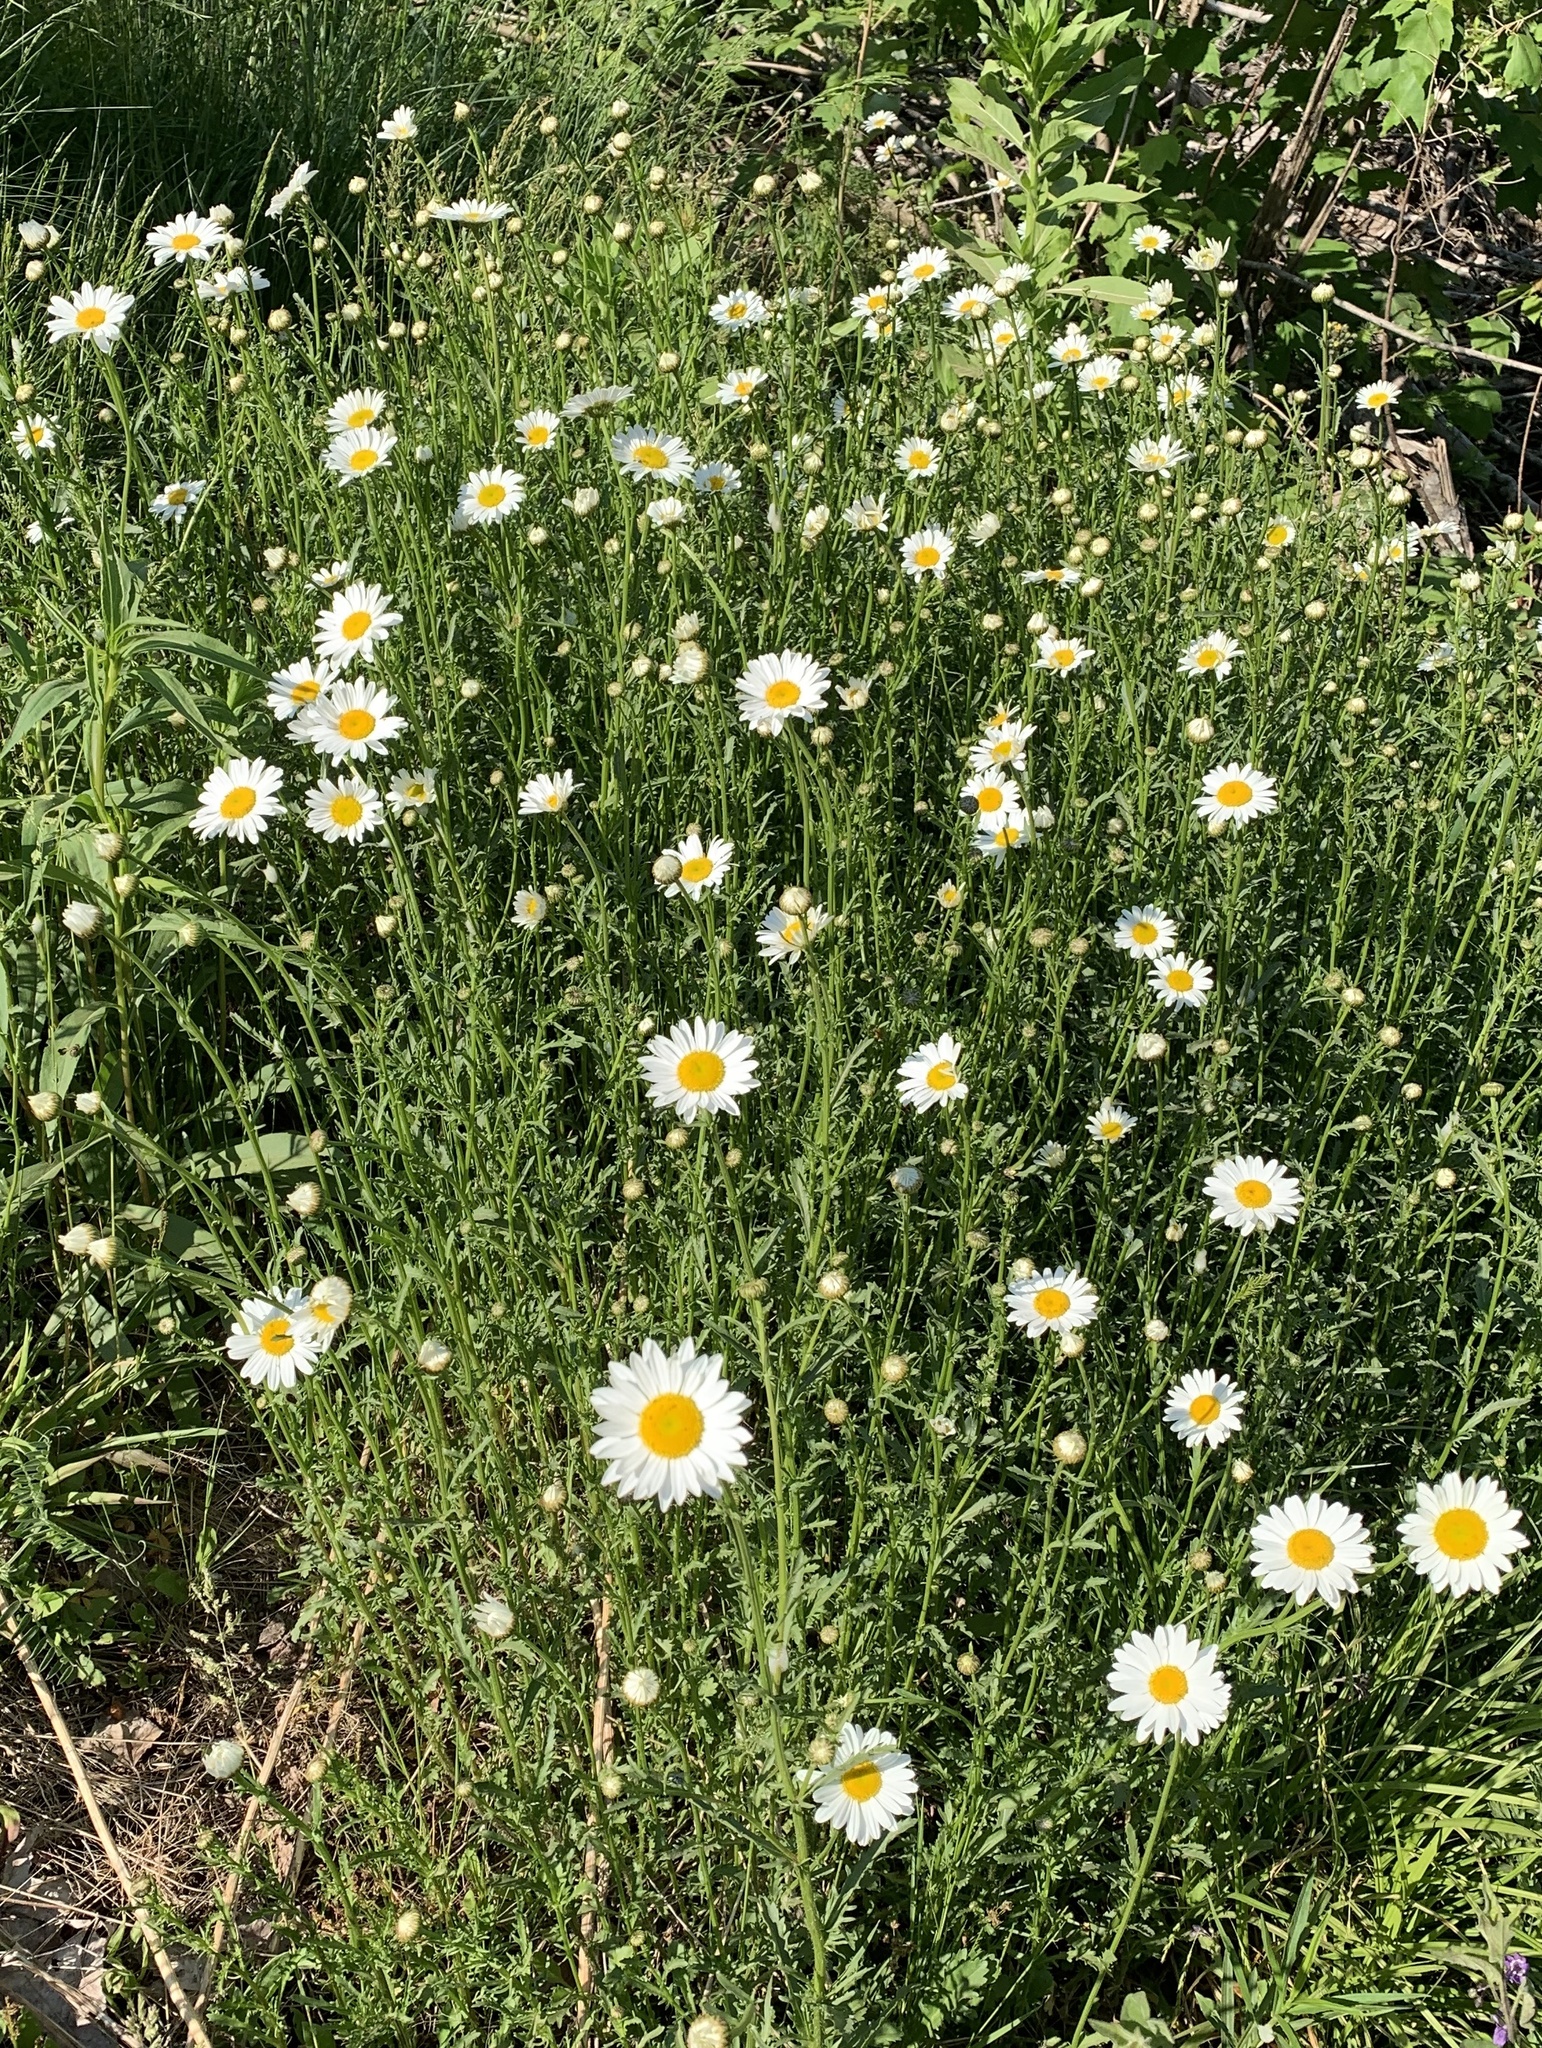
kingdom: Plantae
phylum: Tracheophyta
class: Magnoliopsida
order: Asterales
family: Asteraceae
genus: Leucanthemum
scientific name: Leucanthemum vulgare
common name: Oxeye daisy
